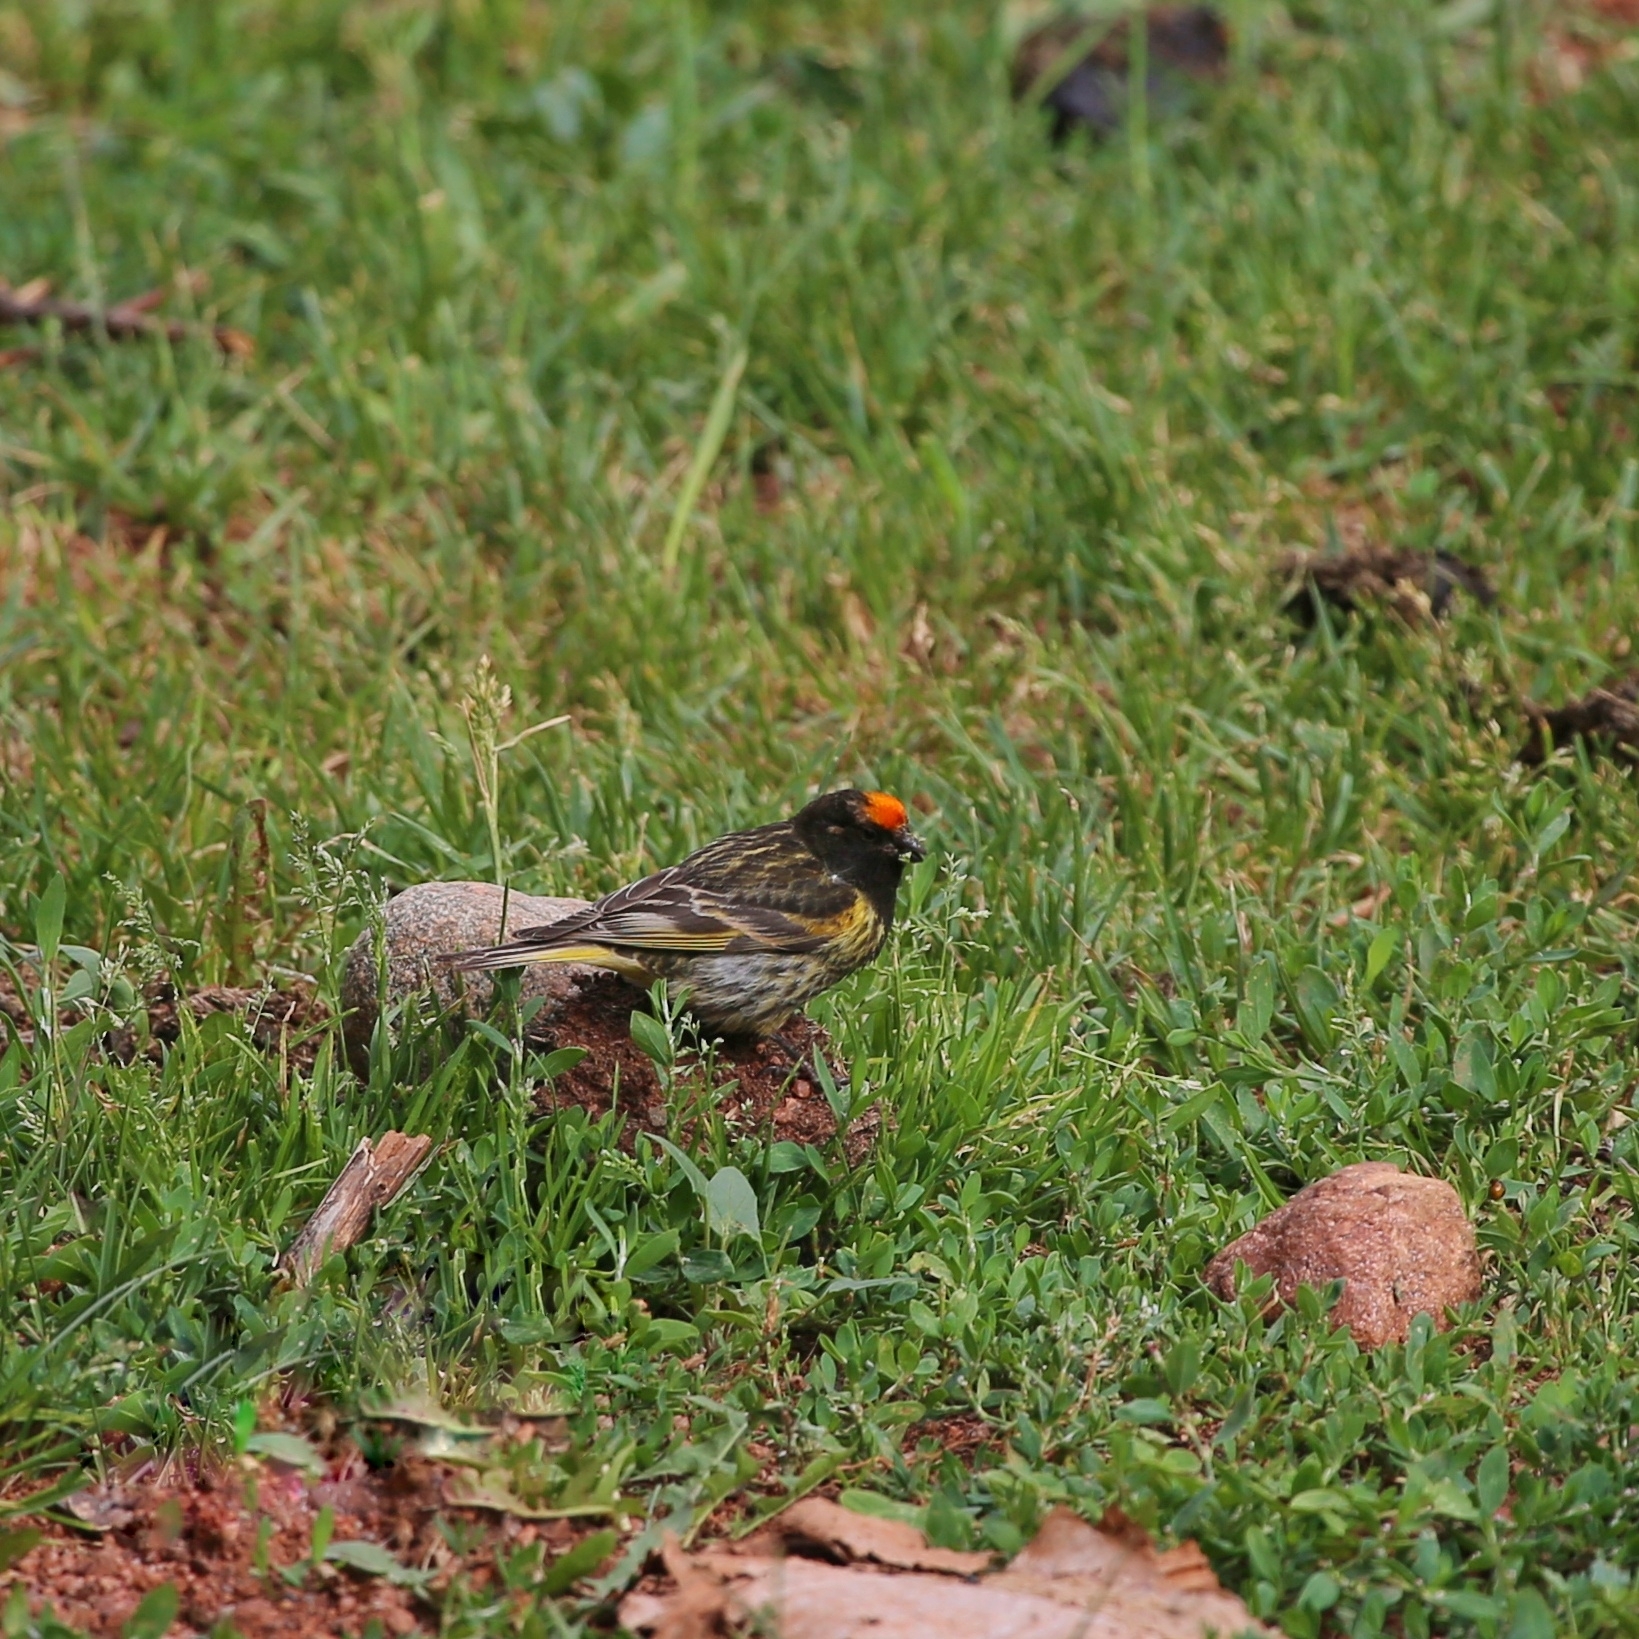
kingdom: Animalia
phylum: Chordata
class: Aves
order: Passeriformes
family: Fringillidae
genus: Serinus
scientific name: Serinus pusillus
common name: Red-fronted serin
